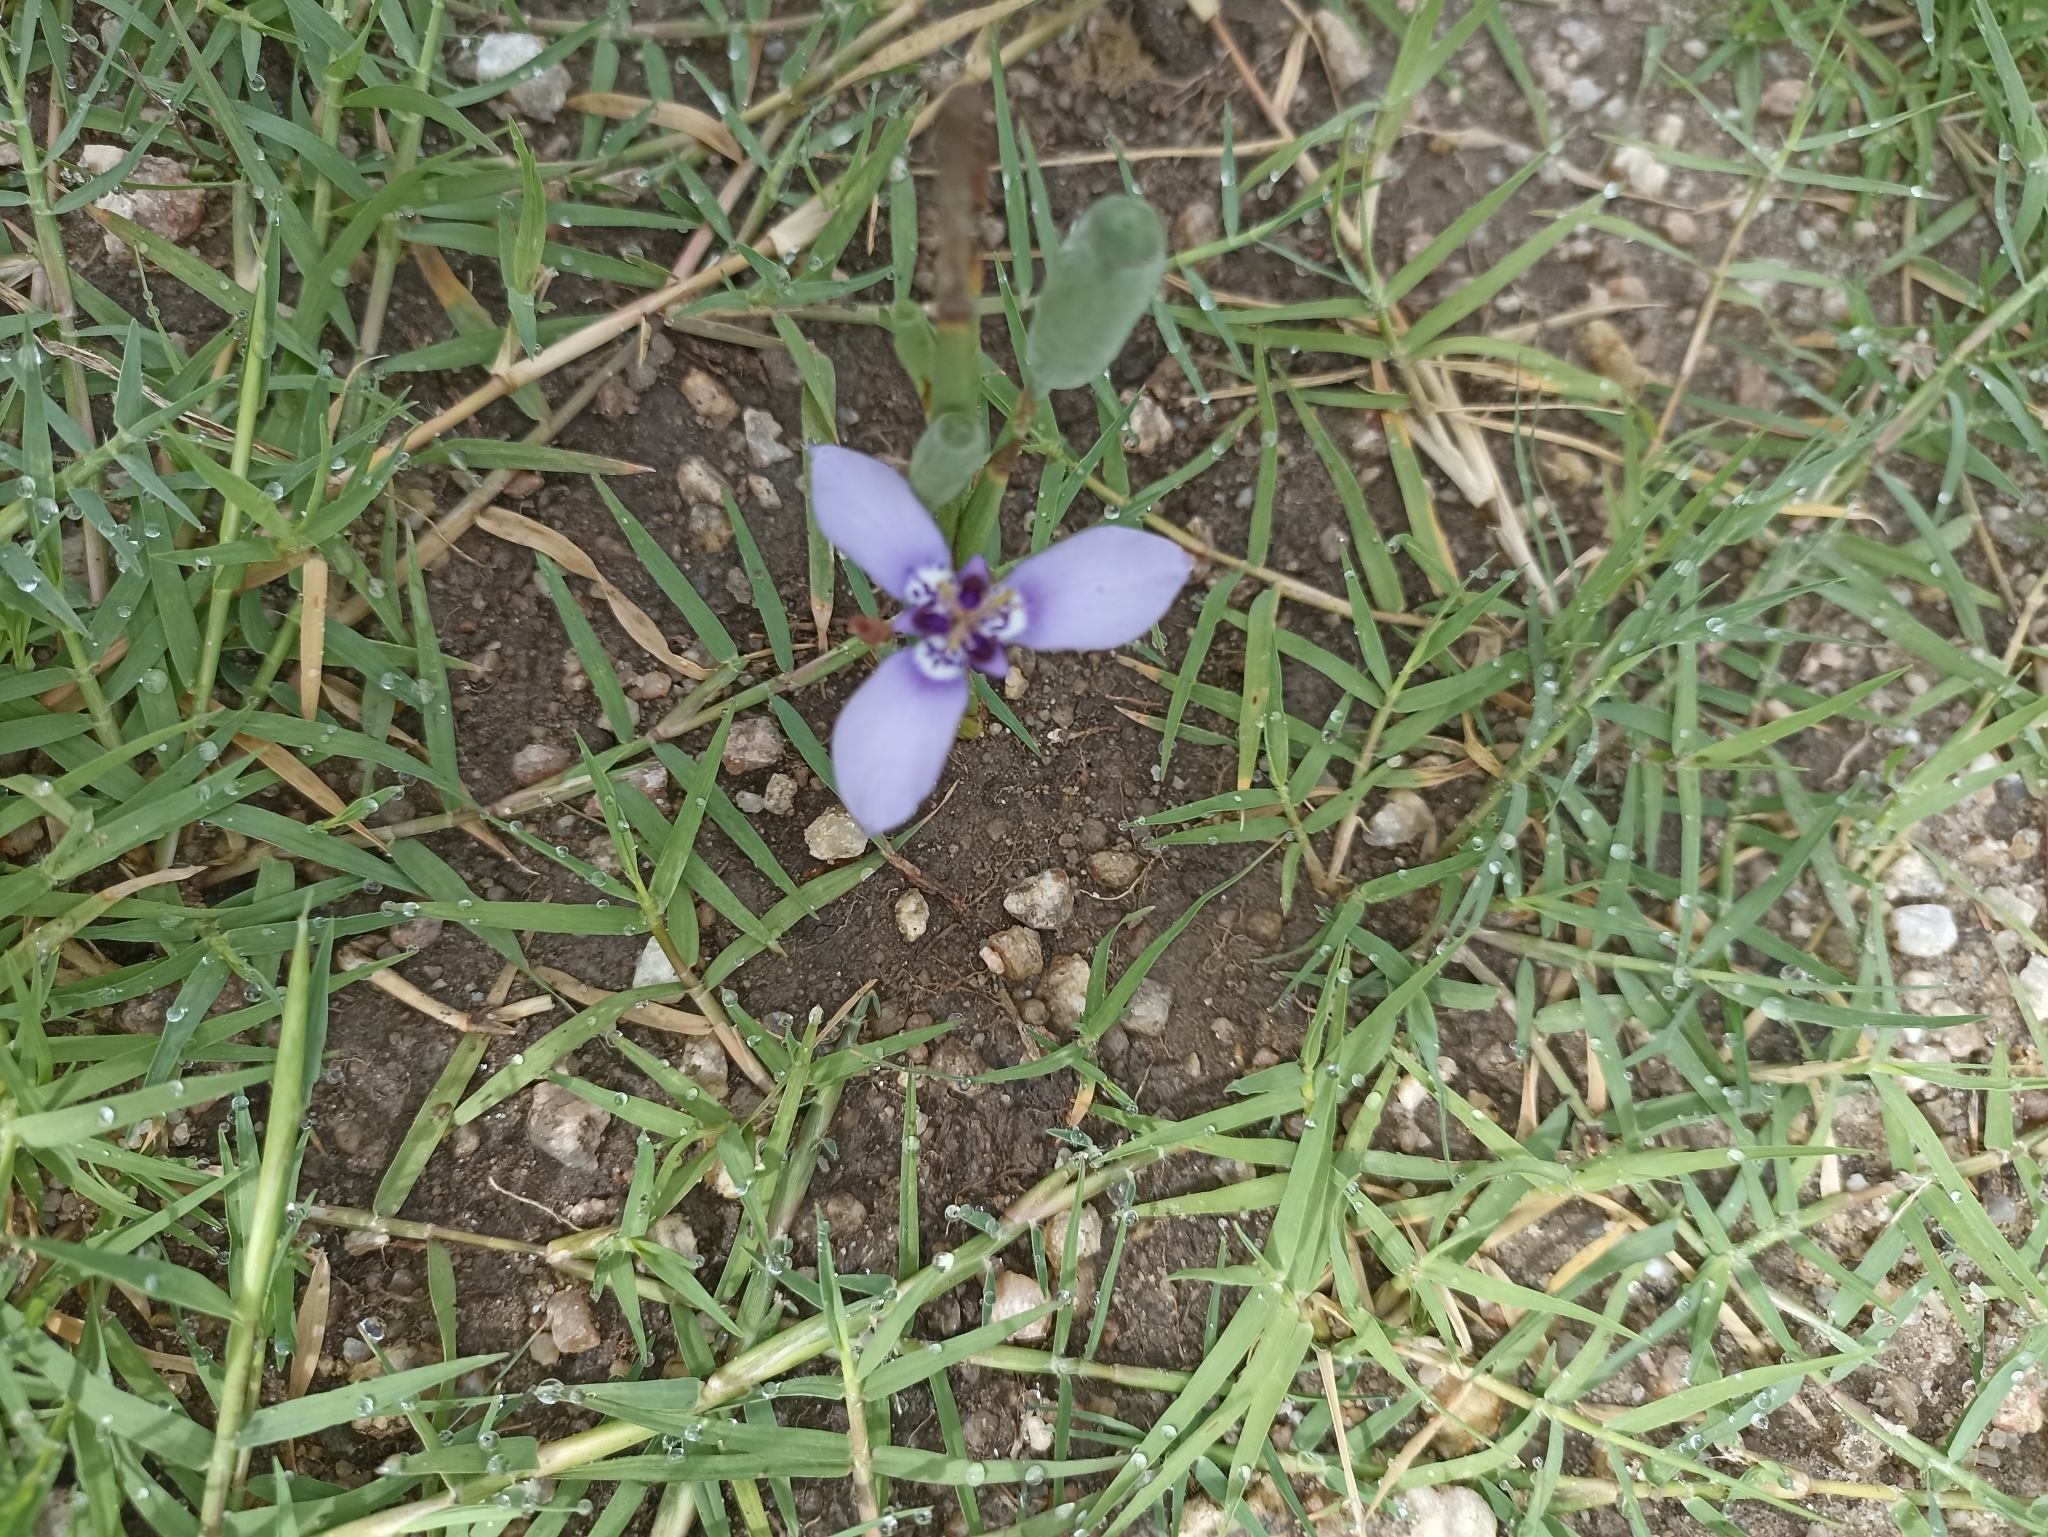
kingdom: Plantae
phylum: Tracheophyta
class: Liliopsida
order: Asparagales
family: Iridaceae
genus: Herbertia
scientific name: Herbertia lahue
